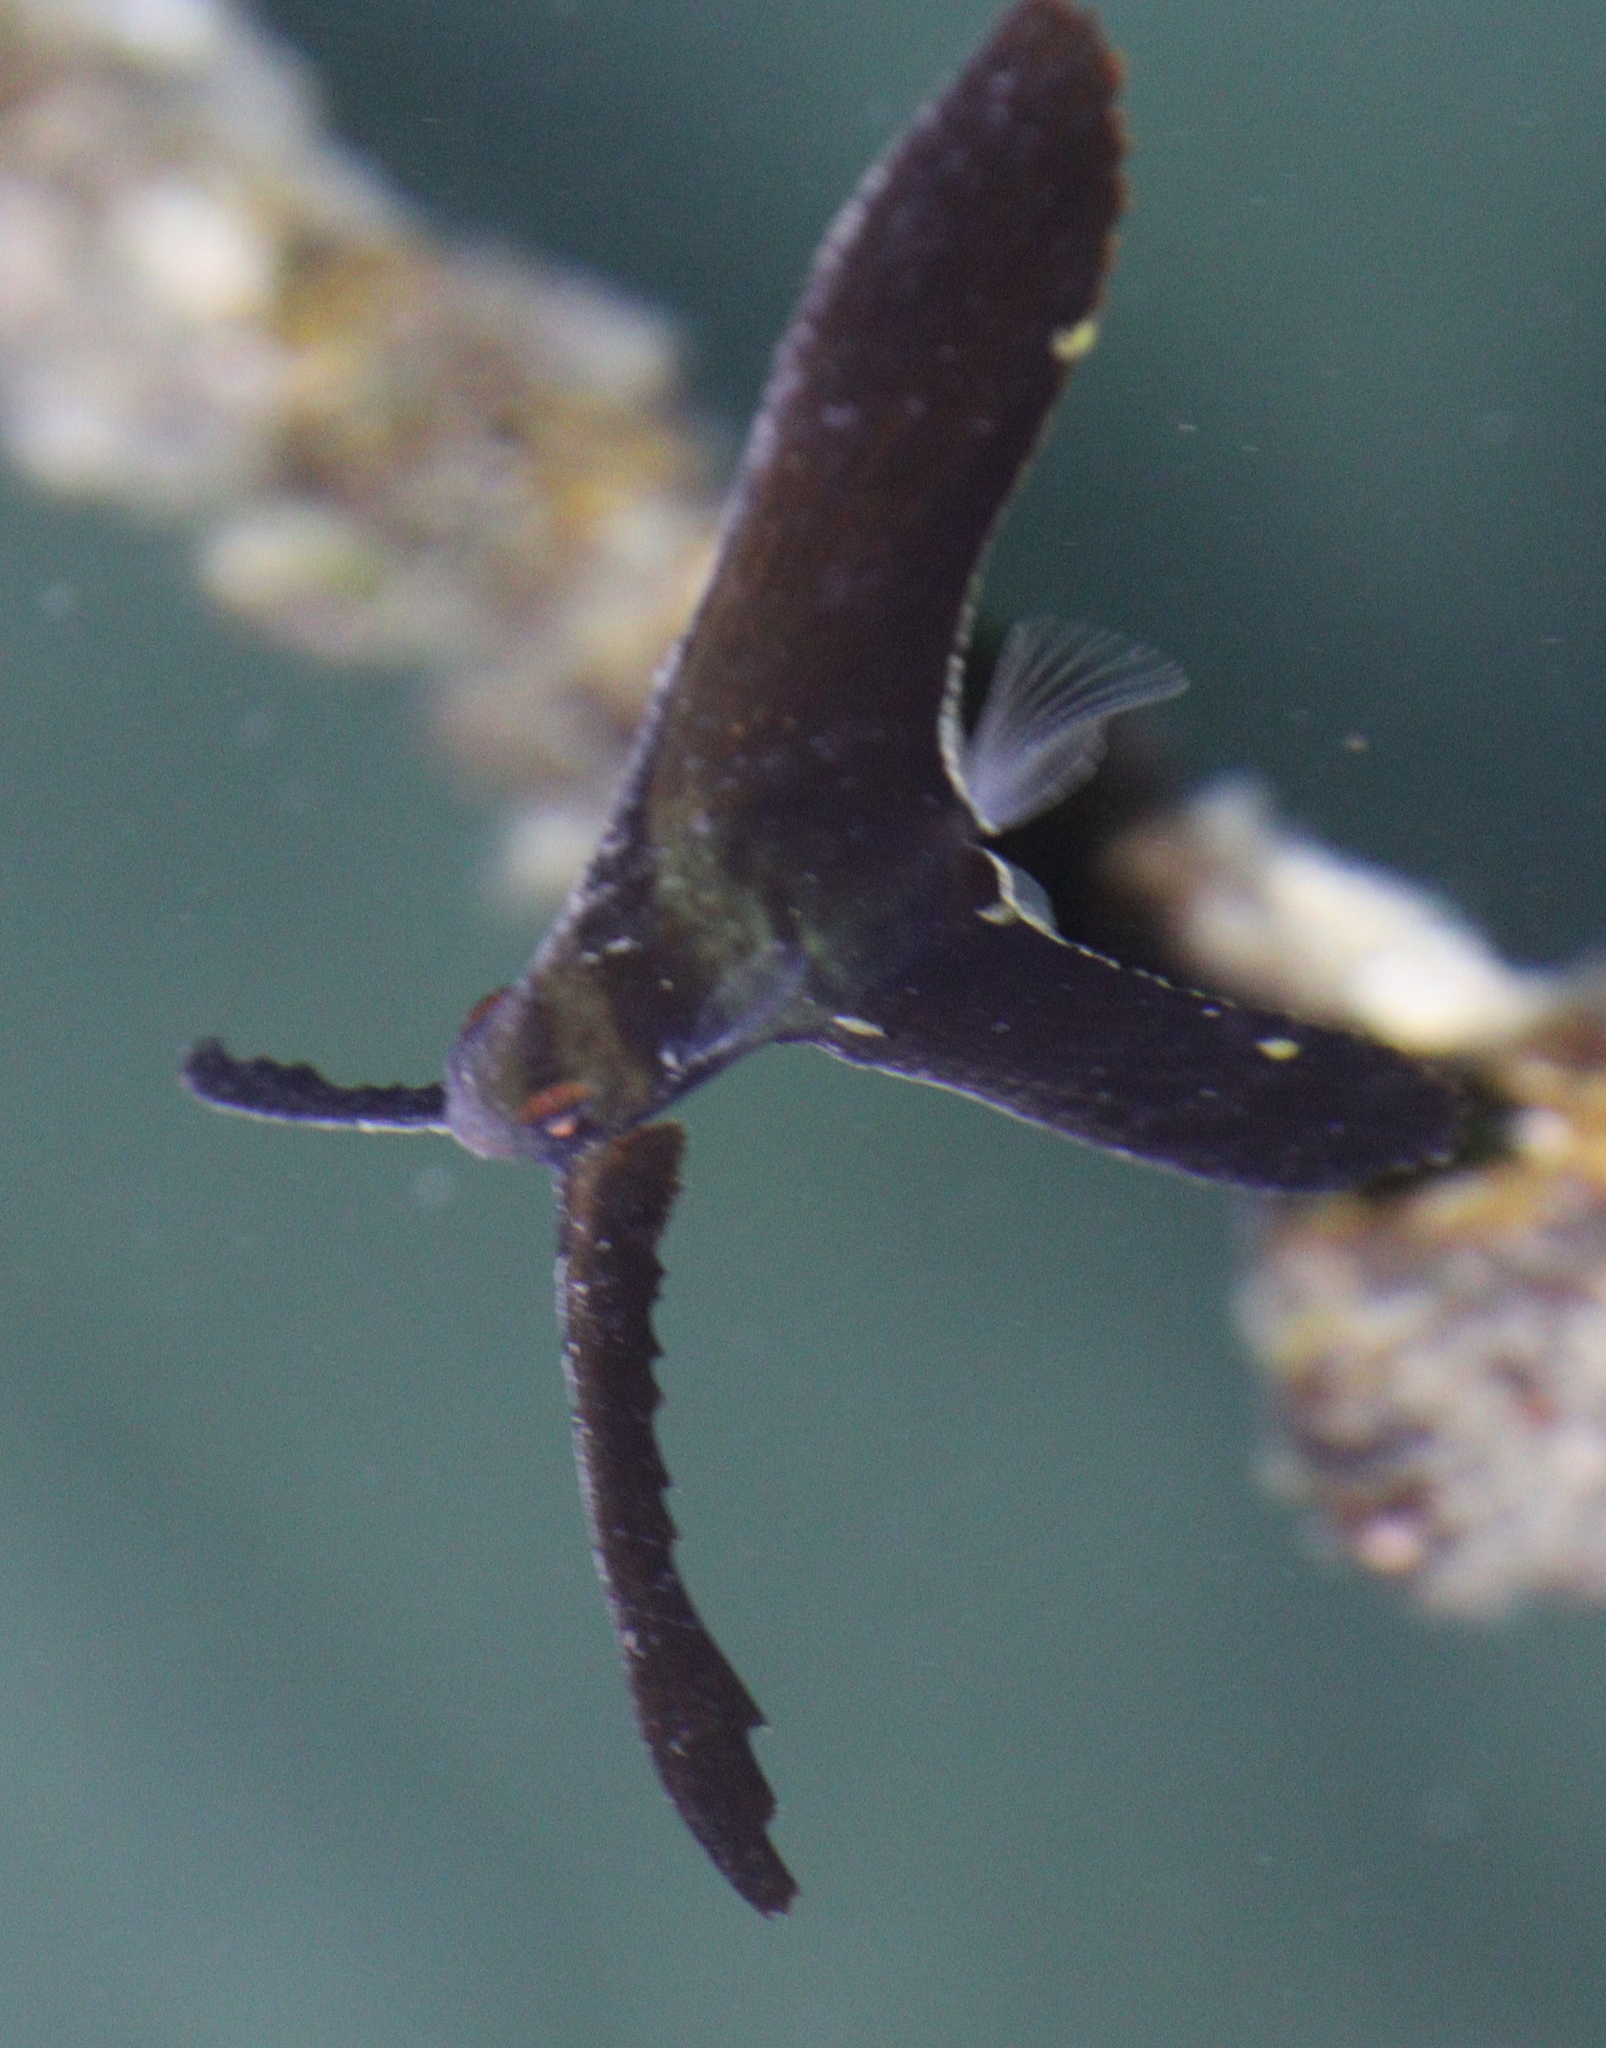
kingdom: Animalia
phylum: Chordata
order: Perciformes
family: Ephippidae
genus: Platax
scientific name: Platax teira
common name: Longfin baitfish
